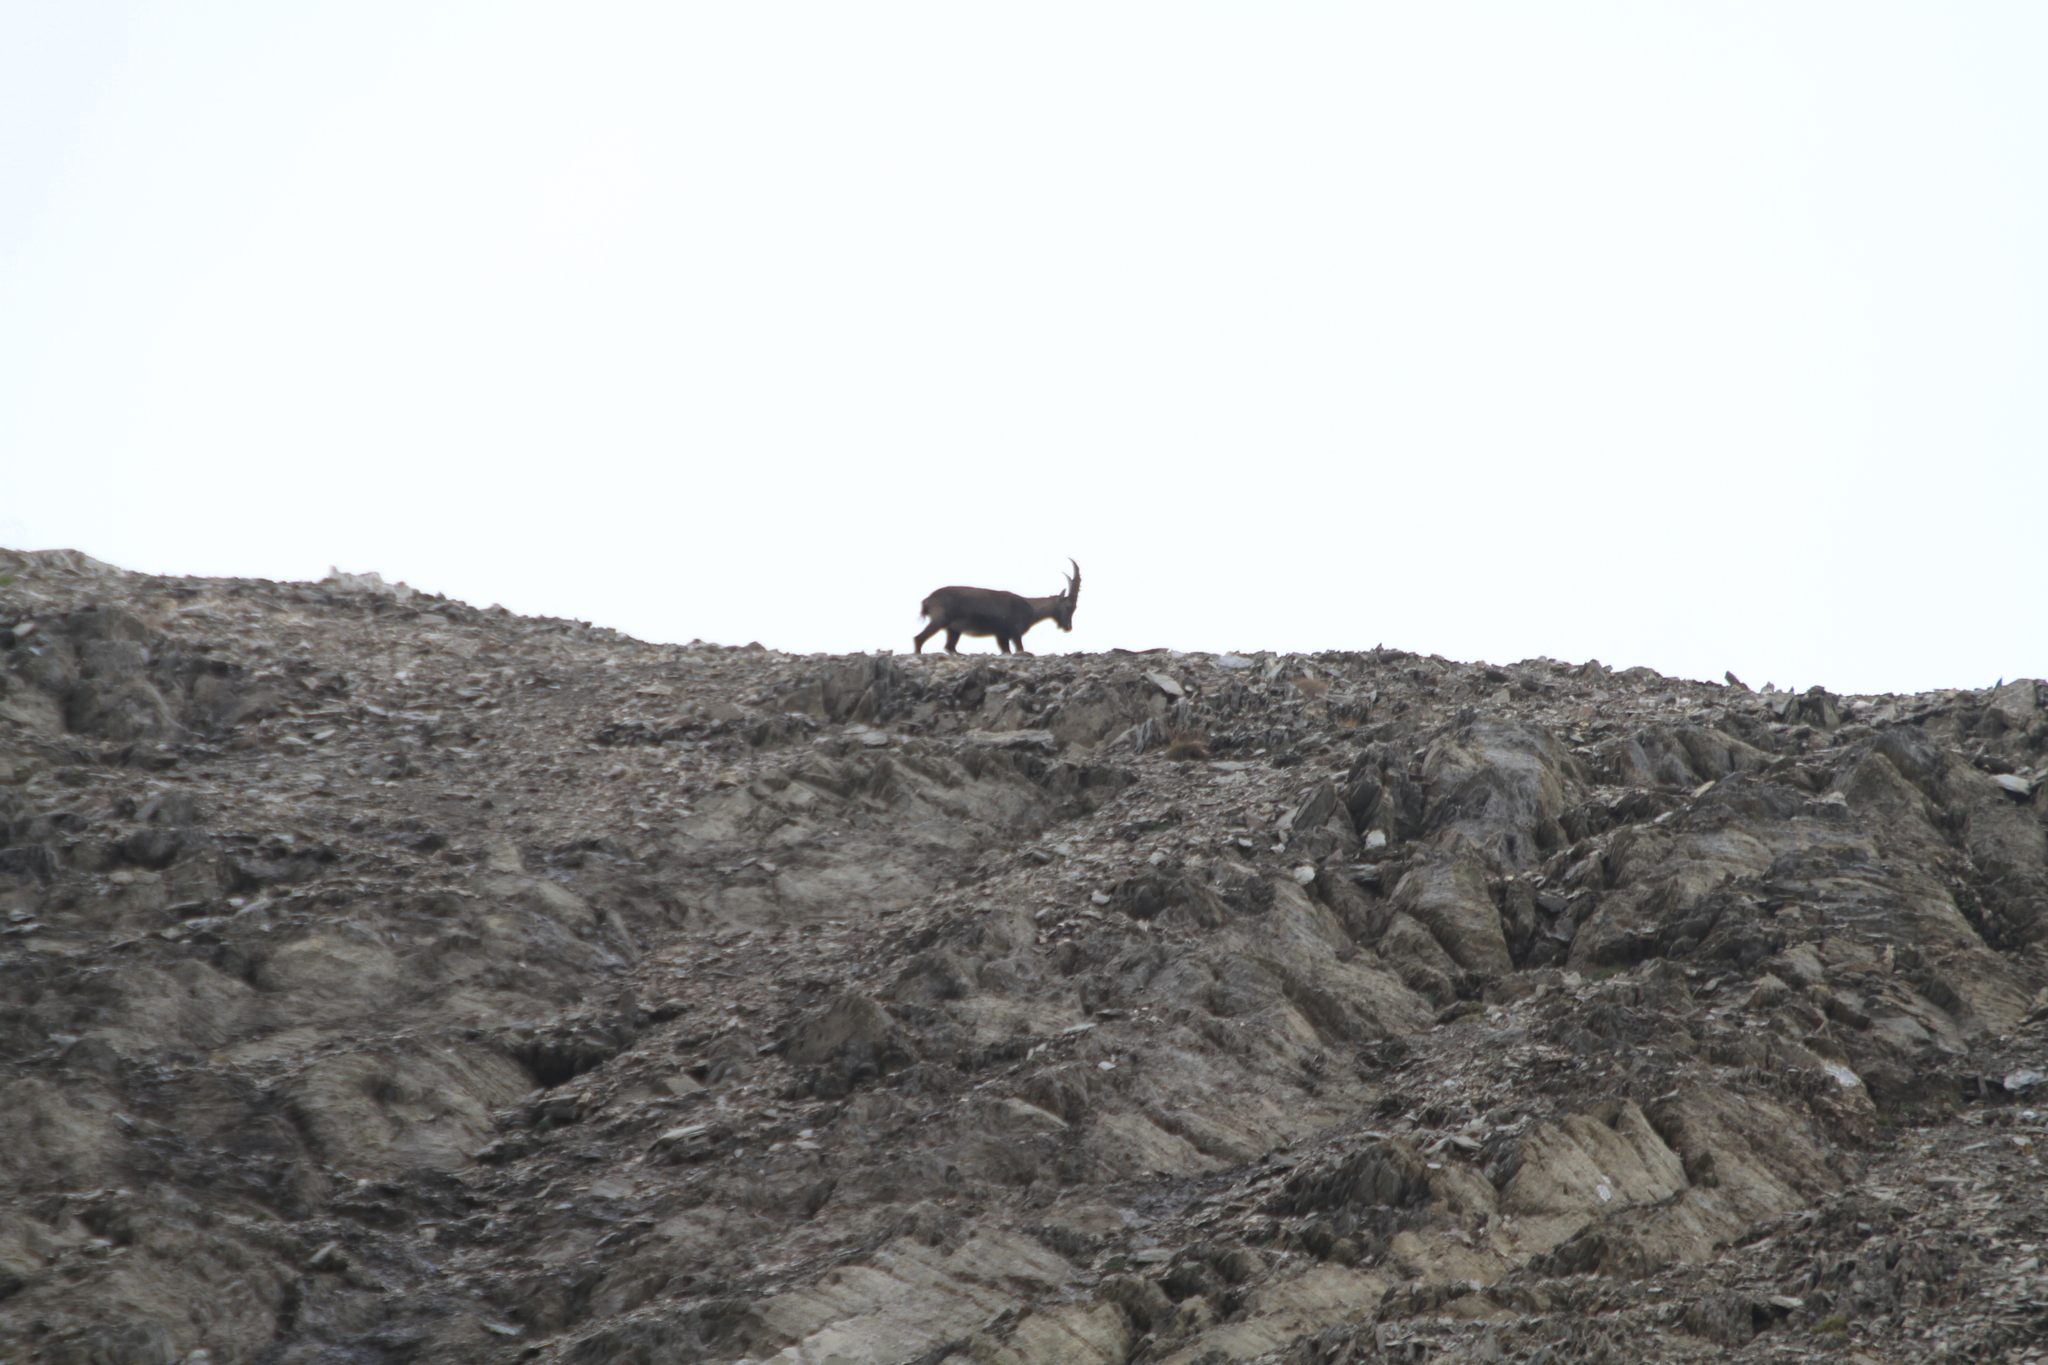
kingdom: Animalia
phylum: Chordata
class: Mammalia
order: Artiodactyla
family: Bovidae
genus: Capra
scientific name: Capra ibex
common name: Alpine ibex
